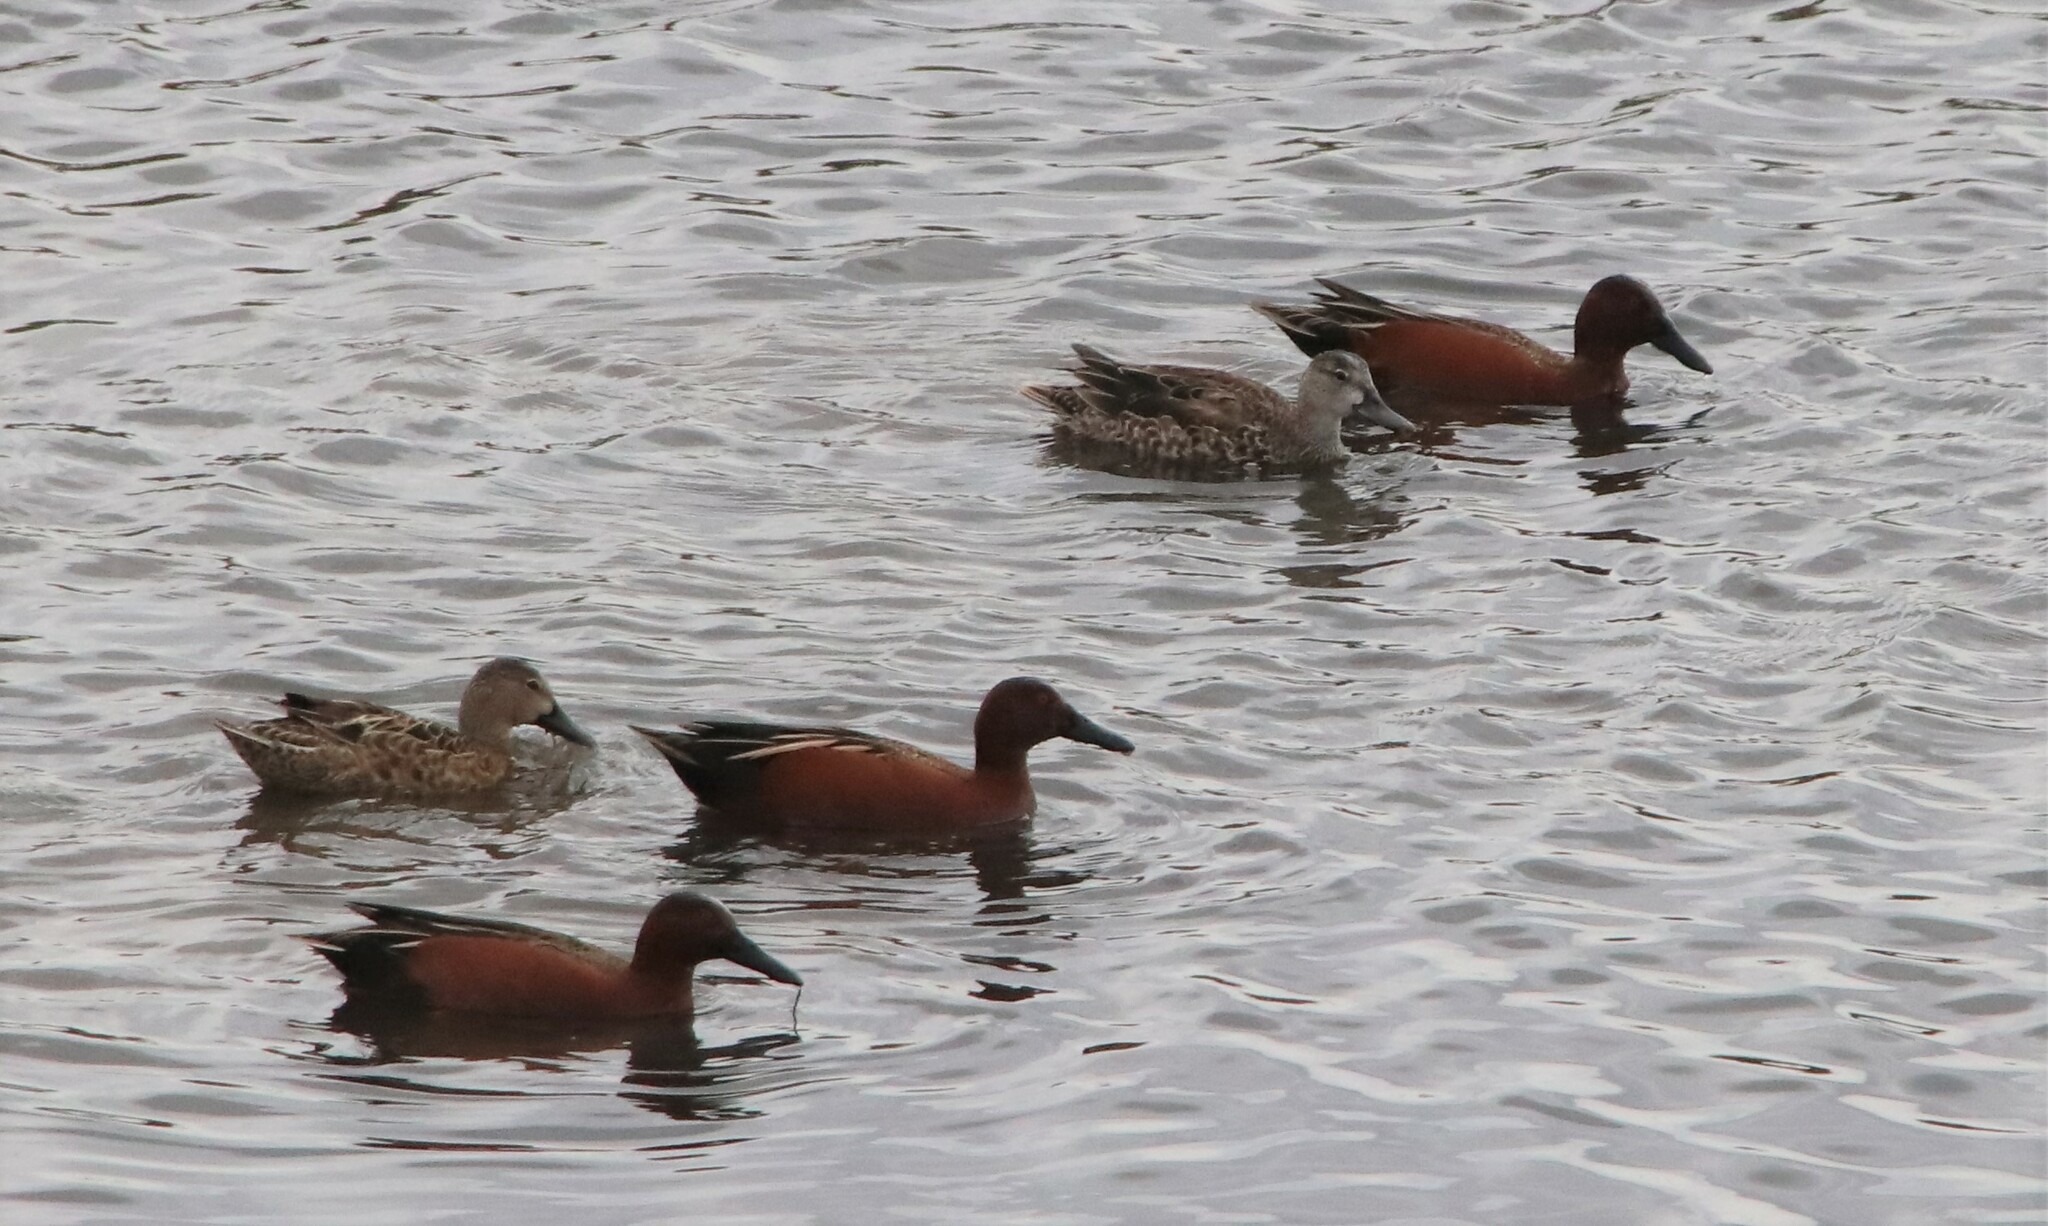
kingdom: Animalia
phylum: Chordata
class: Aves
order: Anseriformes
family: Anatidae
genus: Spatula
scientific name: Spatula cyanoptera
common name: Cinnamon teal
